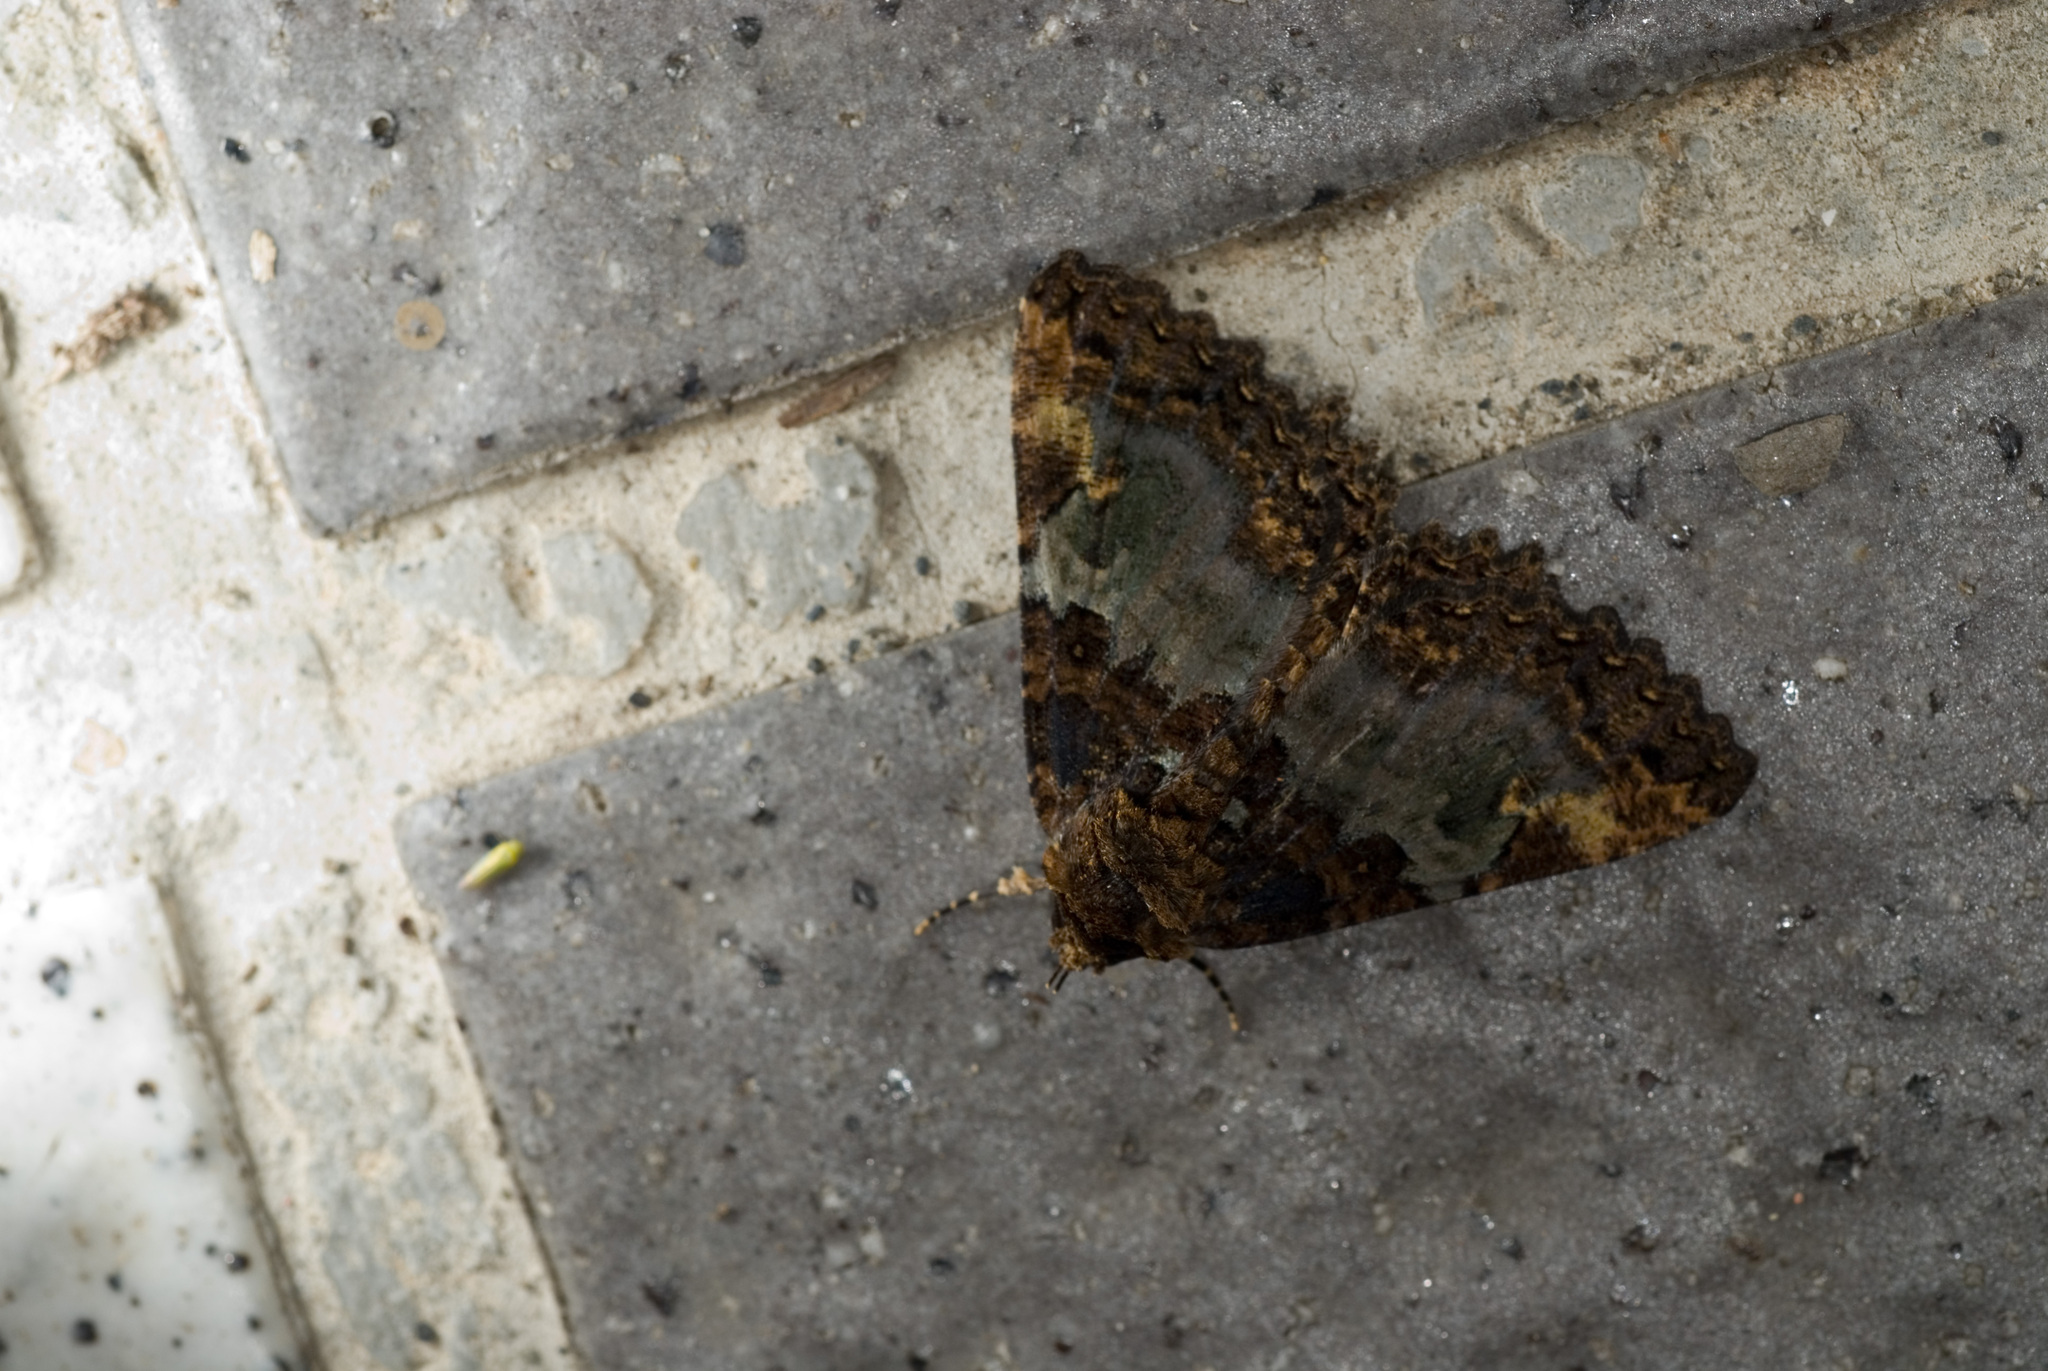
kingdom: Animalia
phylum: Arthropoda
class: Insecta
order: Lepidoptera
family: Erebidae
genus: Daddala
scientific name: Daddala lucilla
